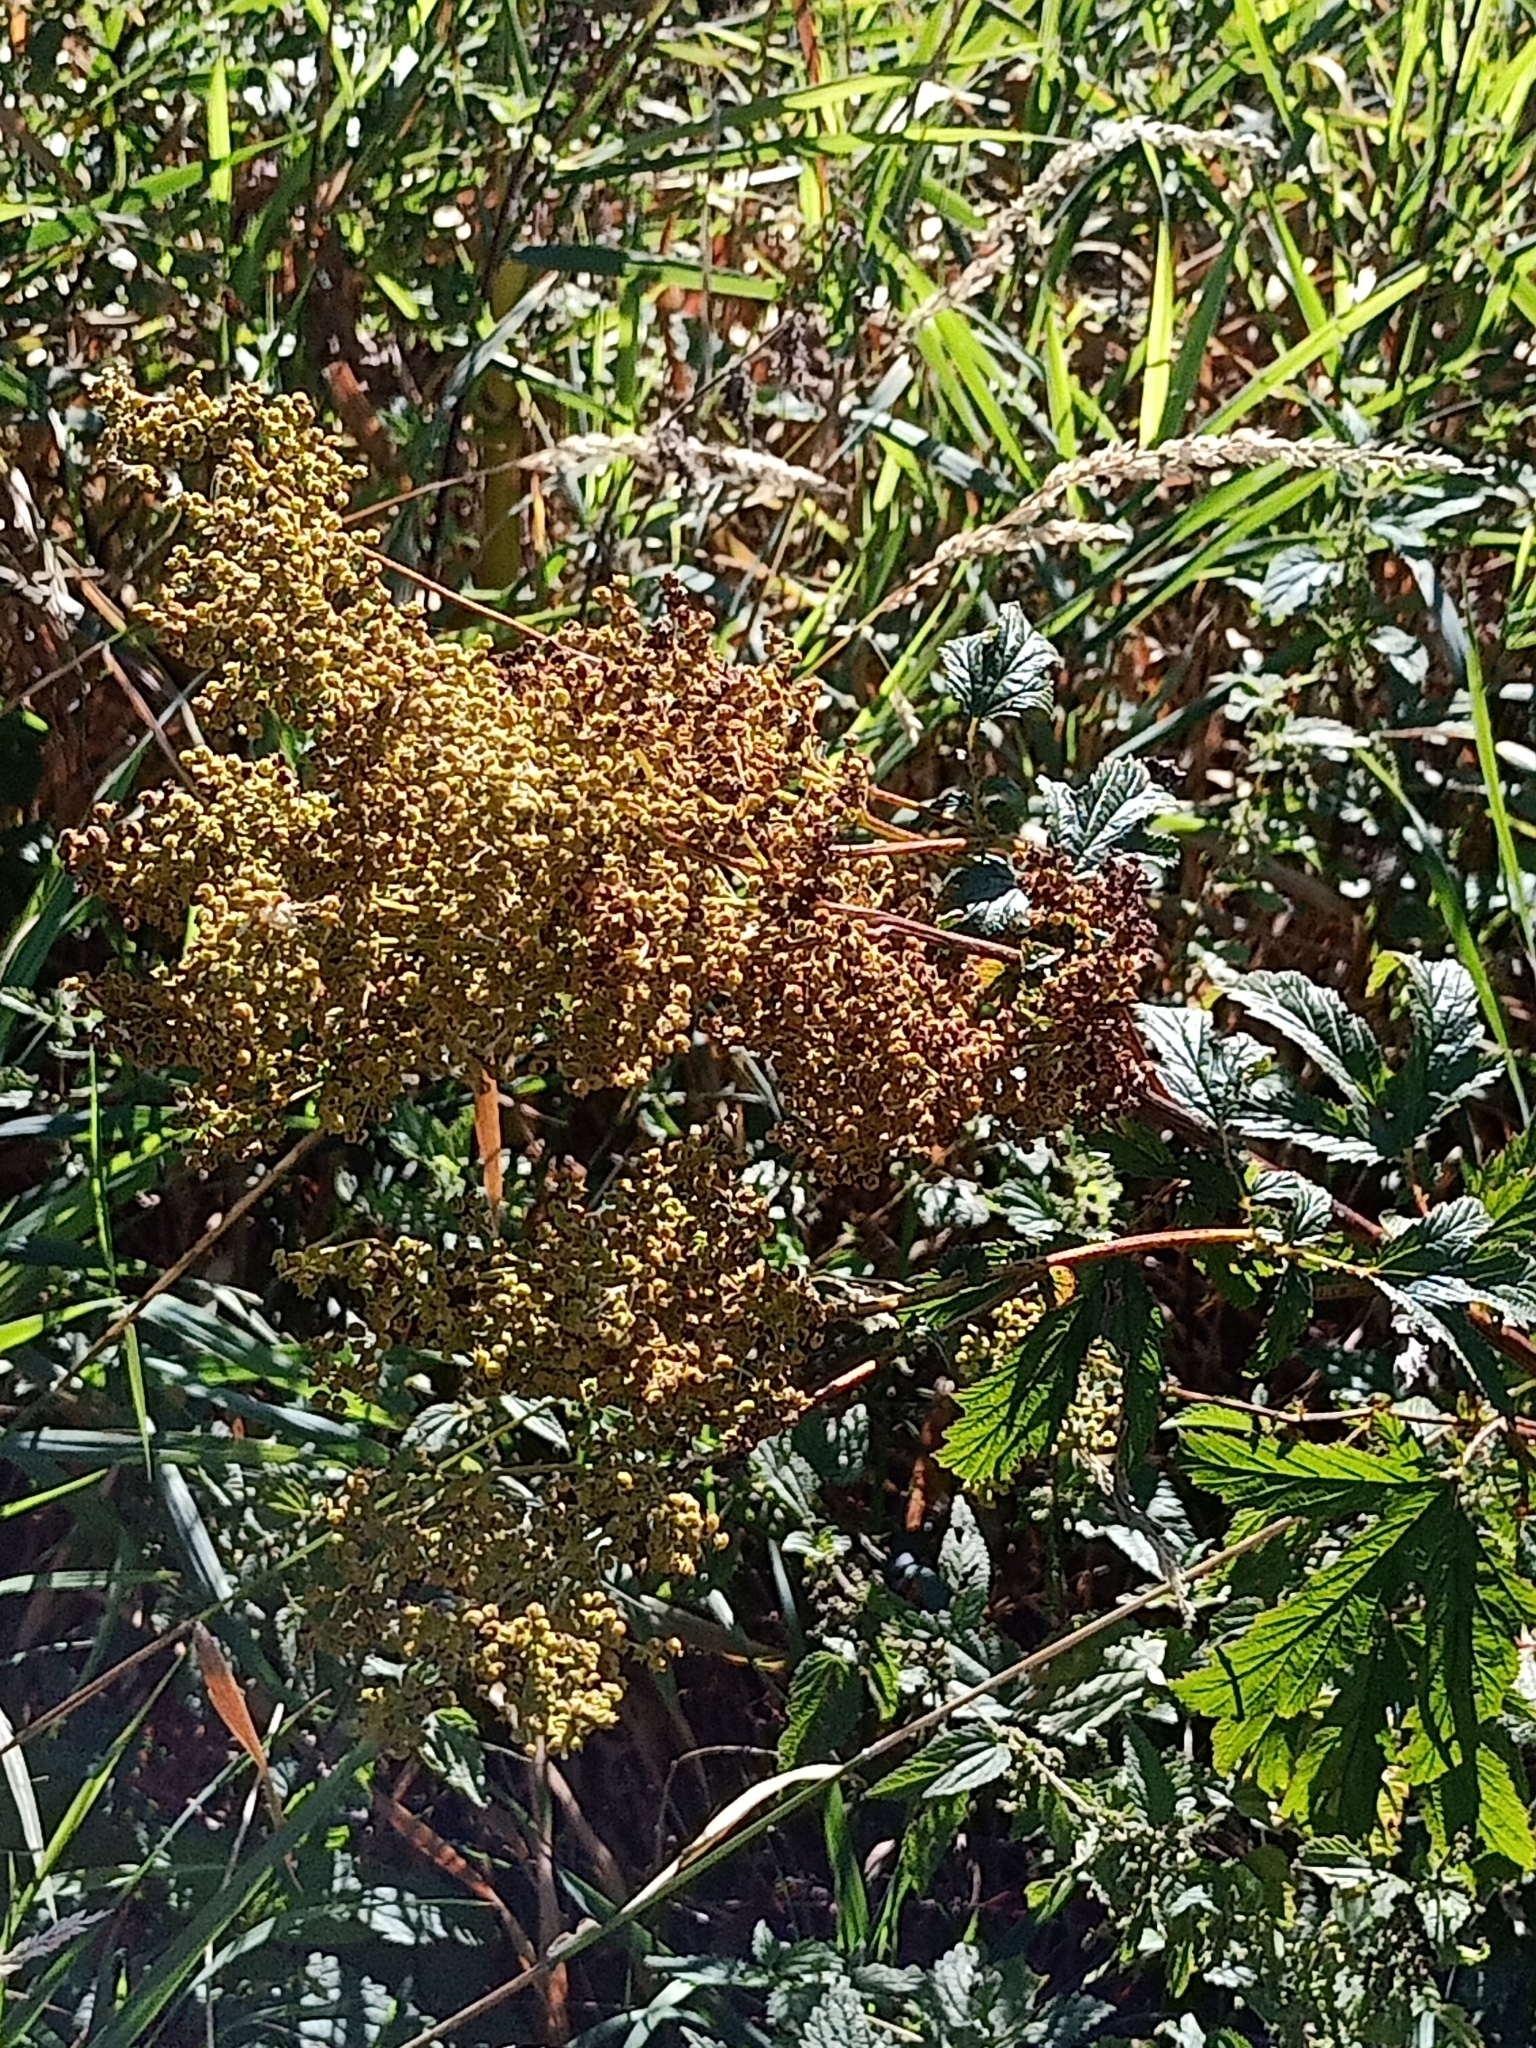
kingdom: Plantae
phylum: Tracheophyta
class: Magnoliopsida
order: Rosales
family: Rosaceae
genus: Filipendula
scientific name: Filipendula ulmaria
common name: Meadowsweet
